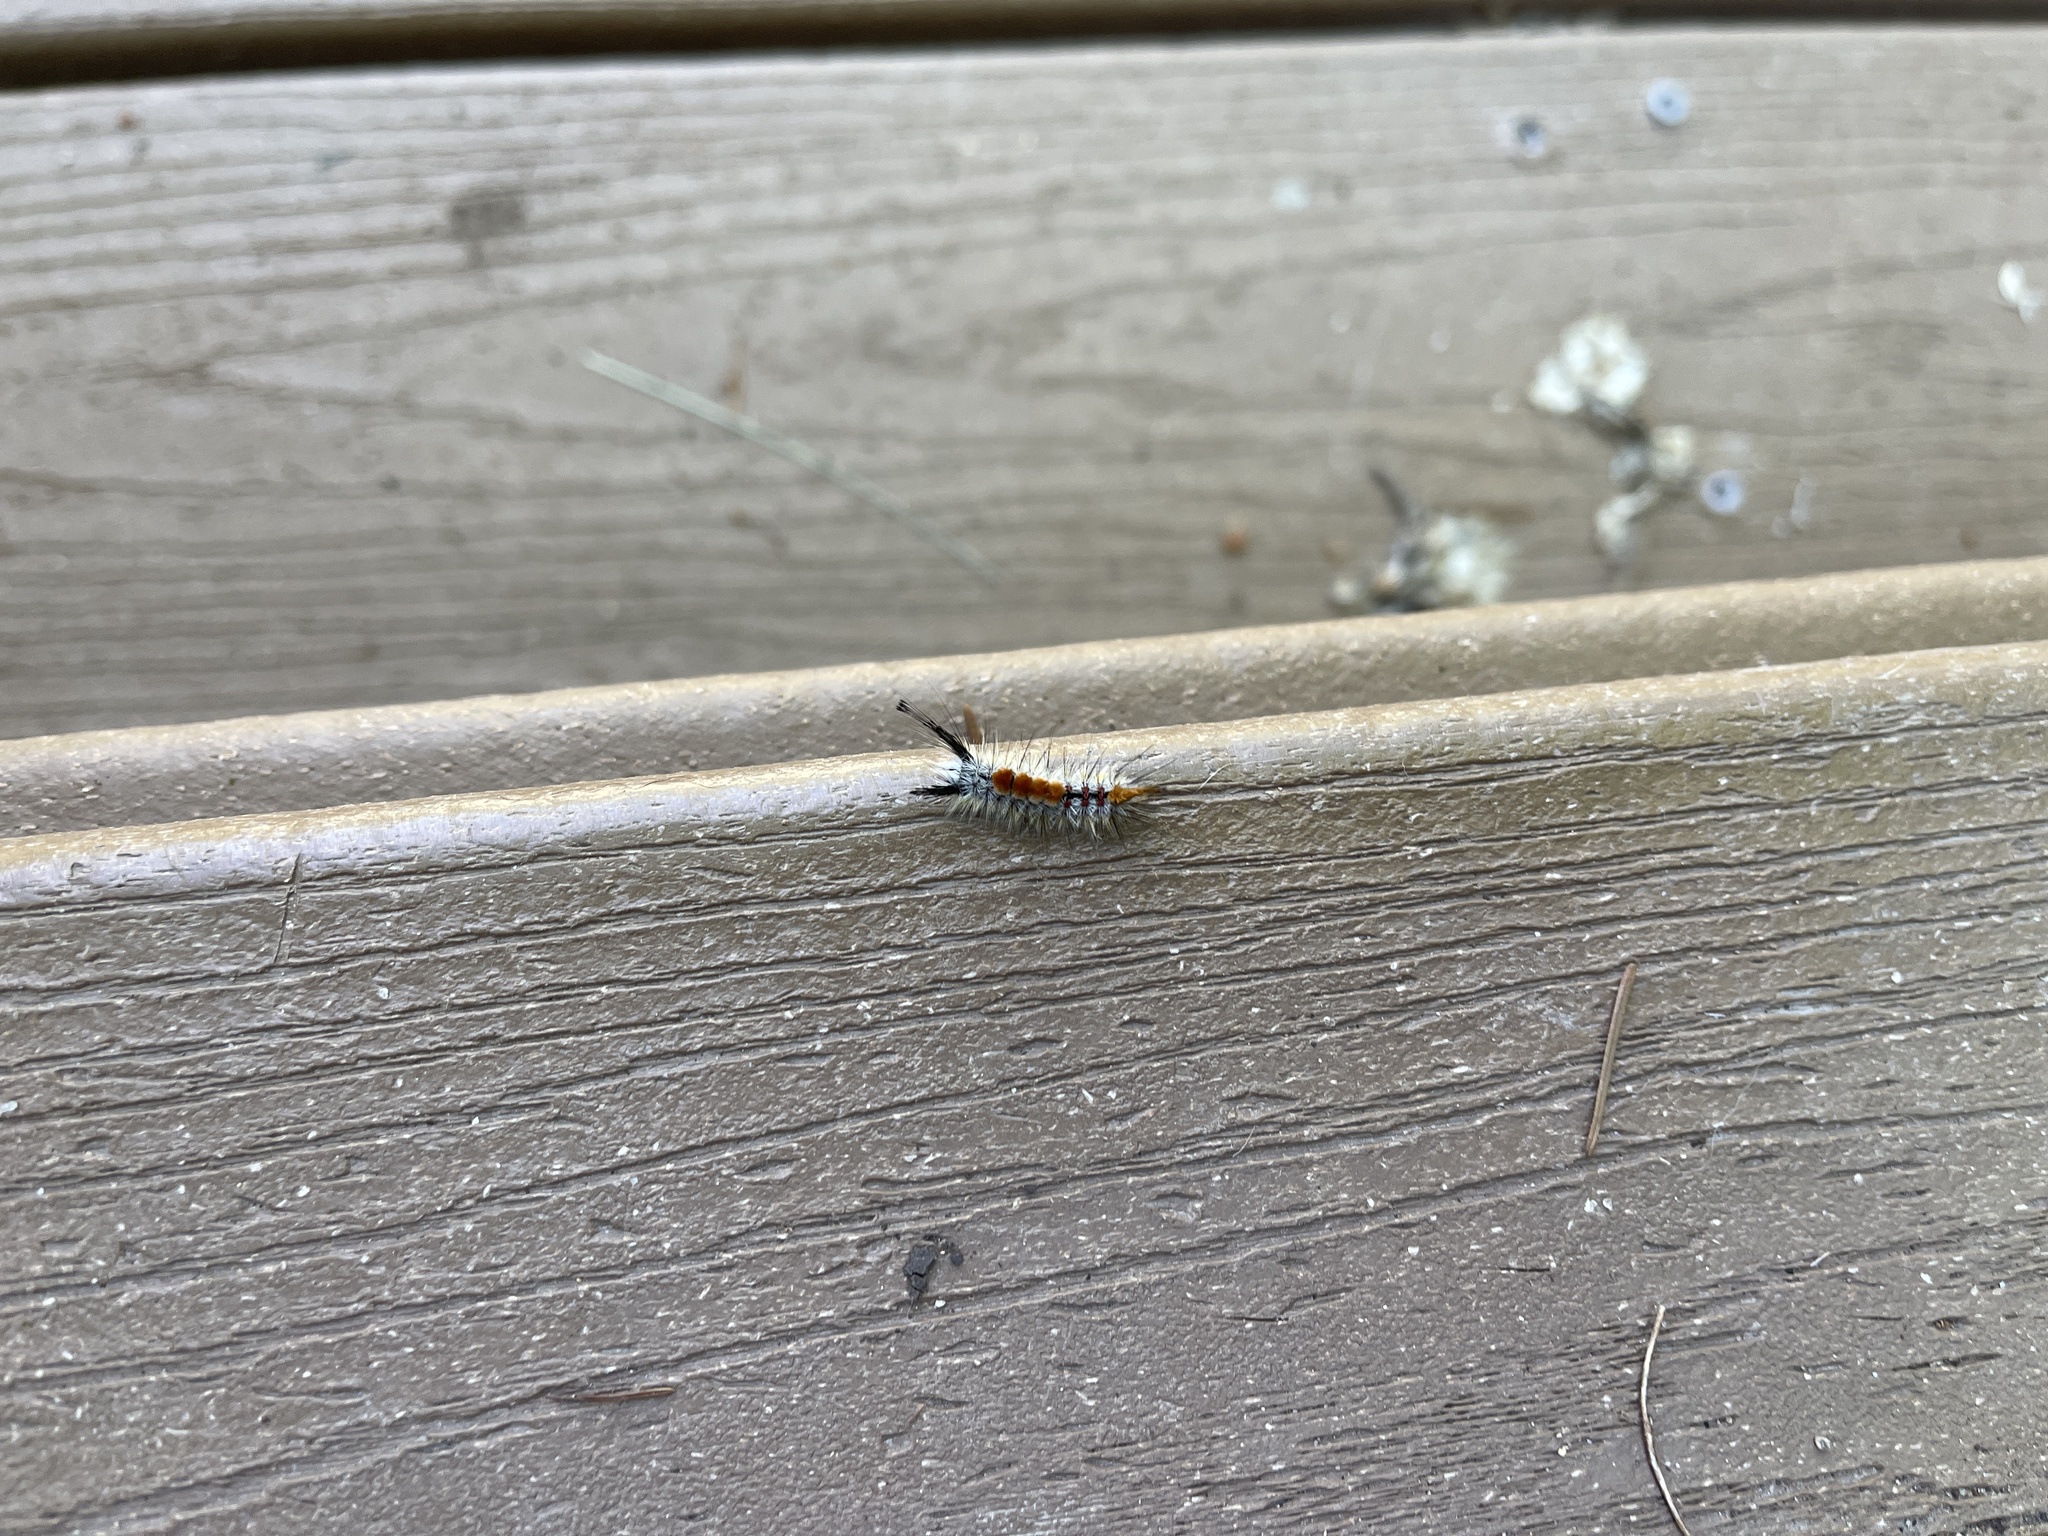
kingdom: Animalia
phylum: Arthropoda
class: Insecta
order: Lepidoptera
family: Erebidae
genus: Orgyia
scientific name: Orgyia pseudotsugata
